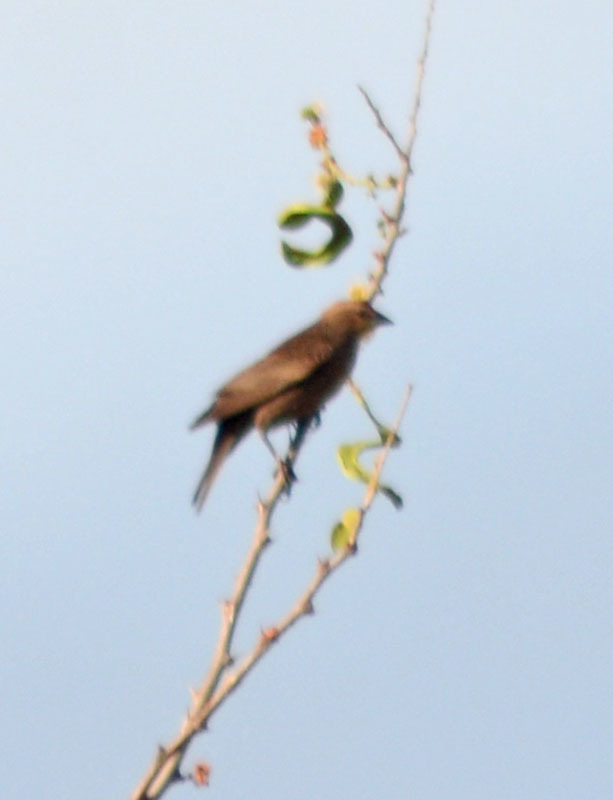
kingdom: Animalia
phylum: Chordata
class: Aves
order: Passeriformes
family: Icteridae
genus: Molothrus
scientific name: Molothrus ater
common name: Brown-headed cowbird
